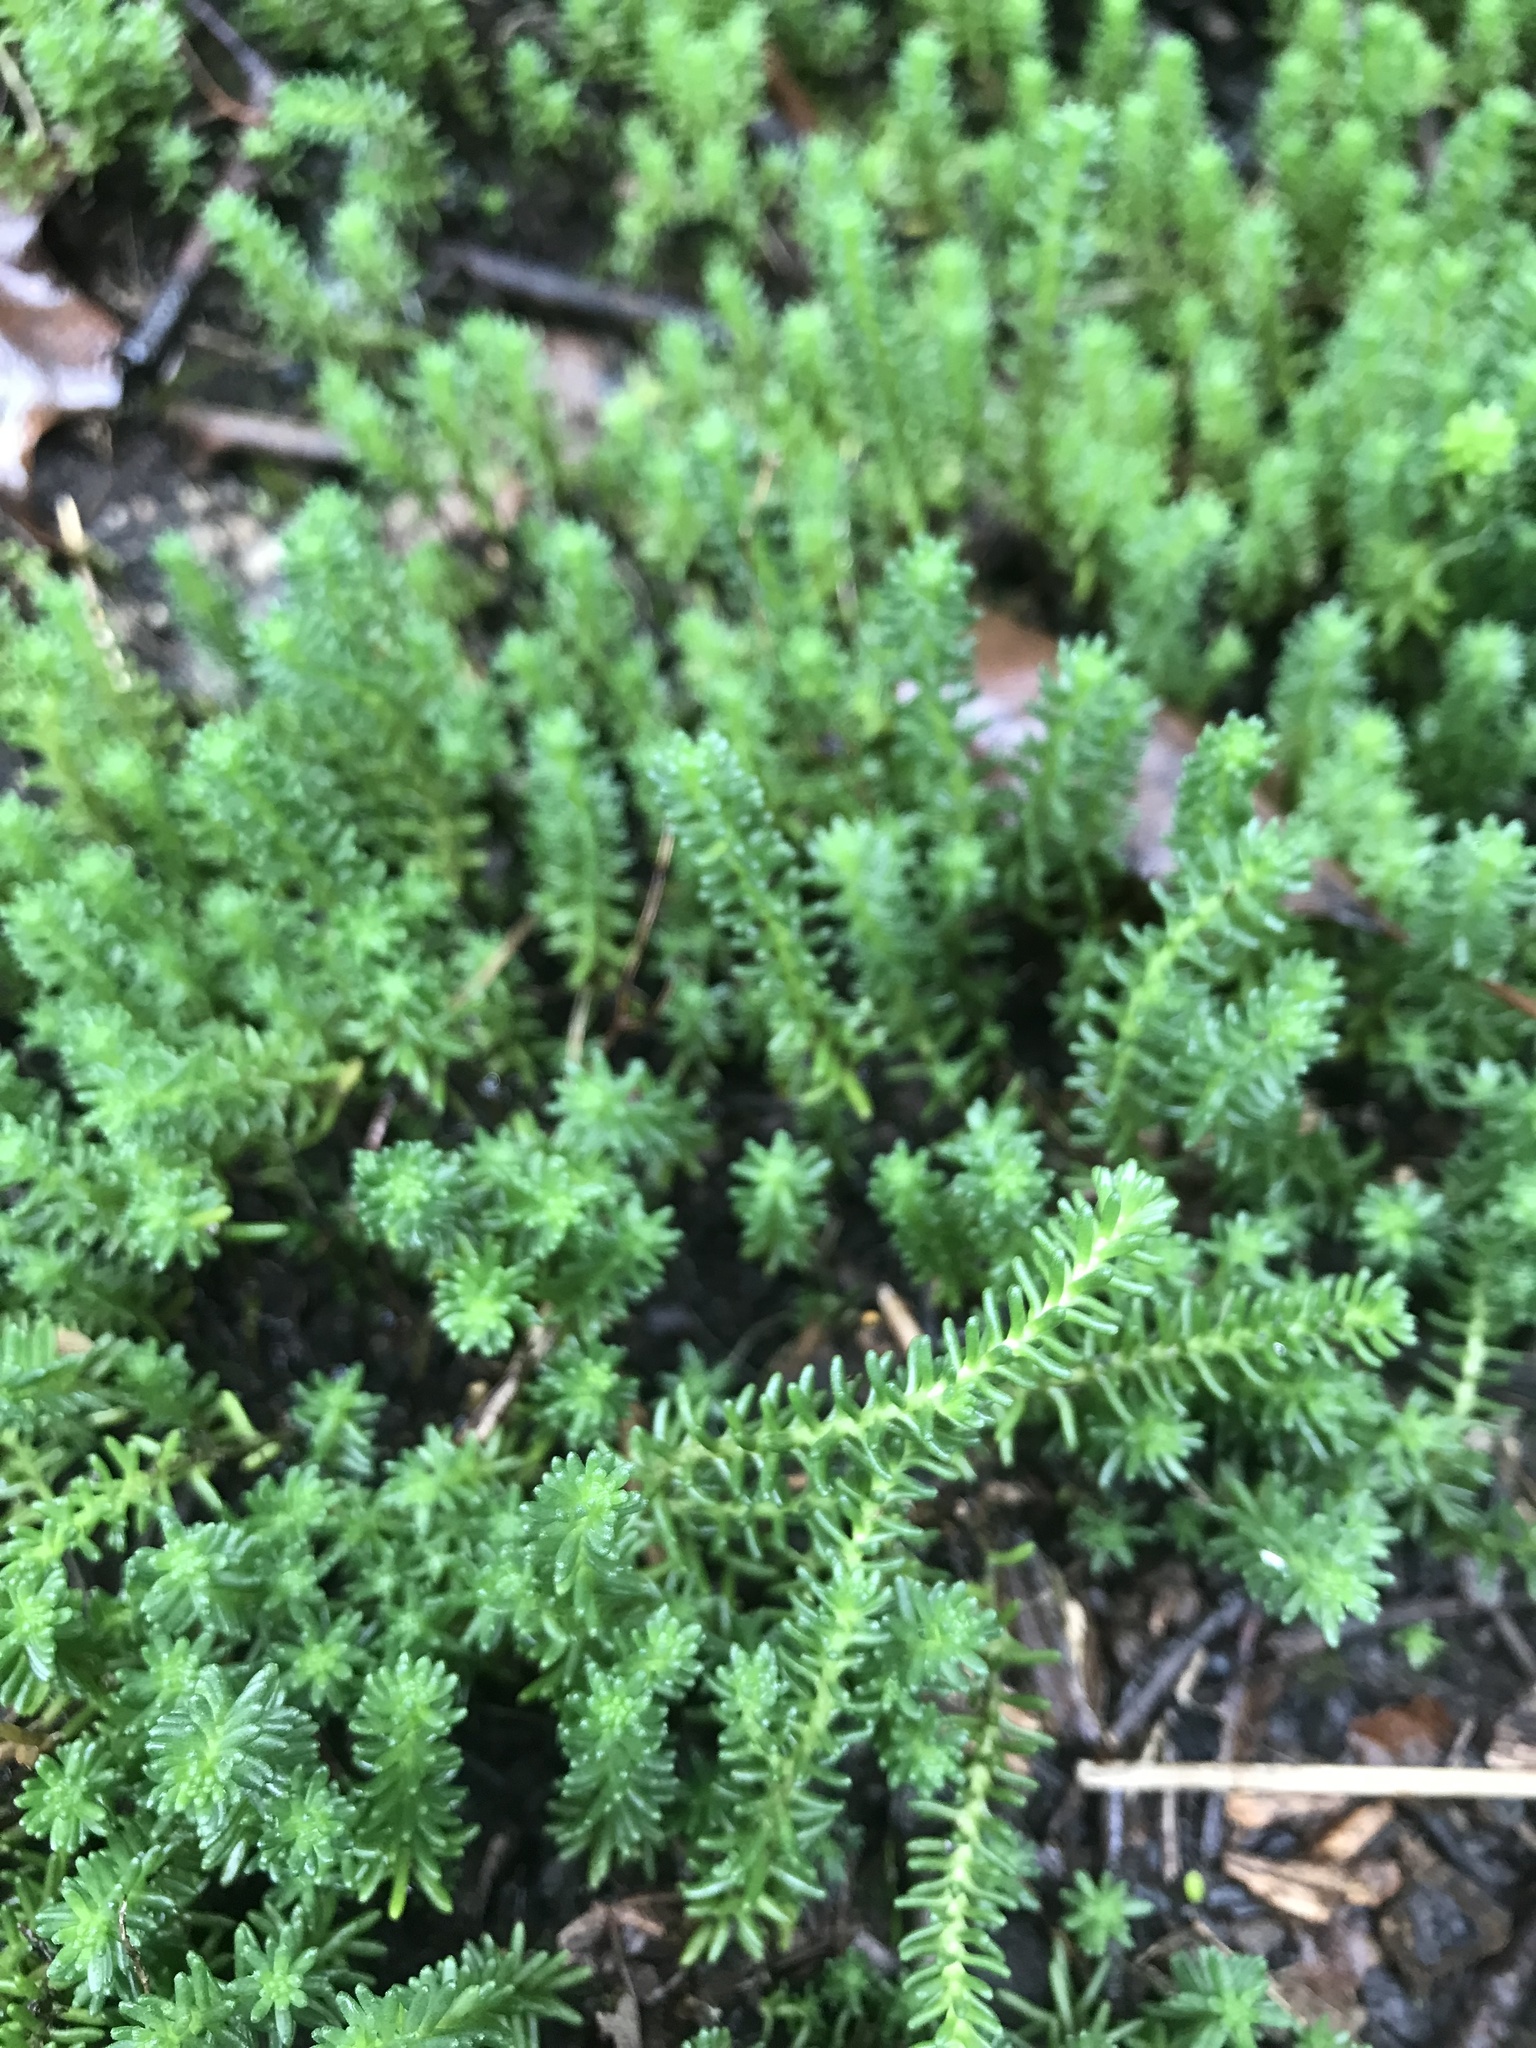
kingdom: Plantae
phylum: Tracheophyta
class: Magnoliopsida
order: Saxifragales
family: Crassulaceae
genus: Sedum
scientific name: Sedum sexangulare
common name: Tasteless stonecrop
